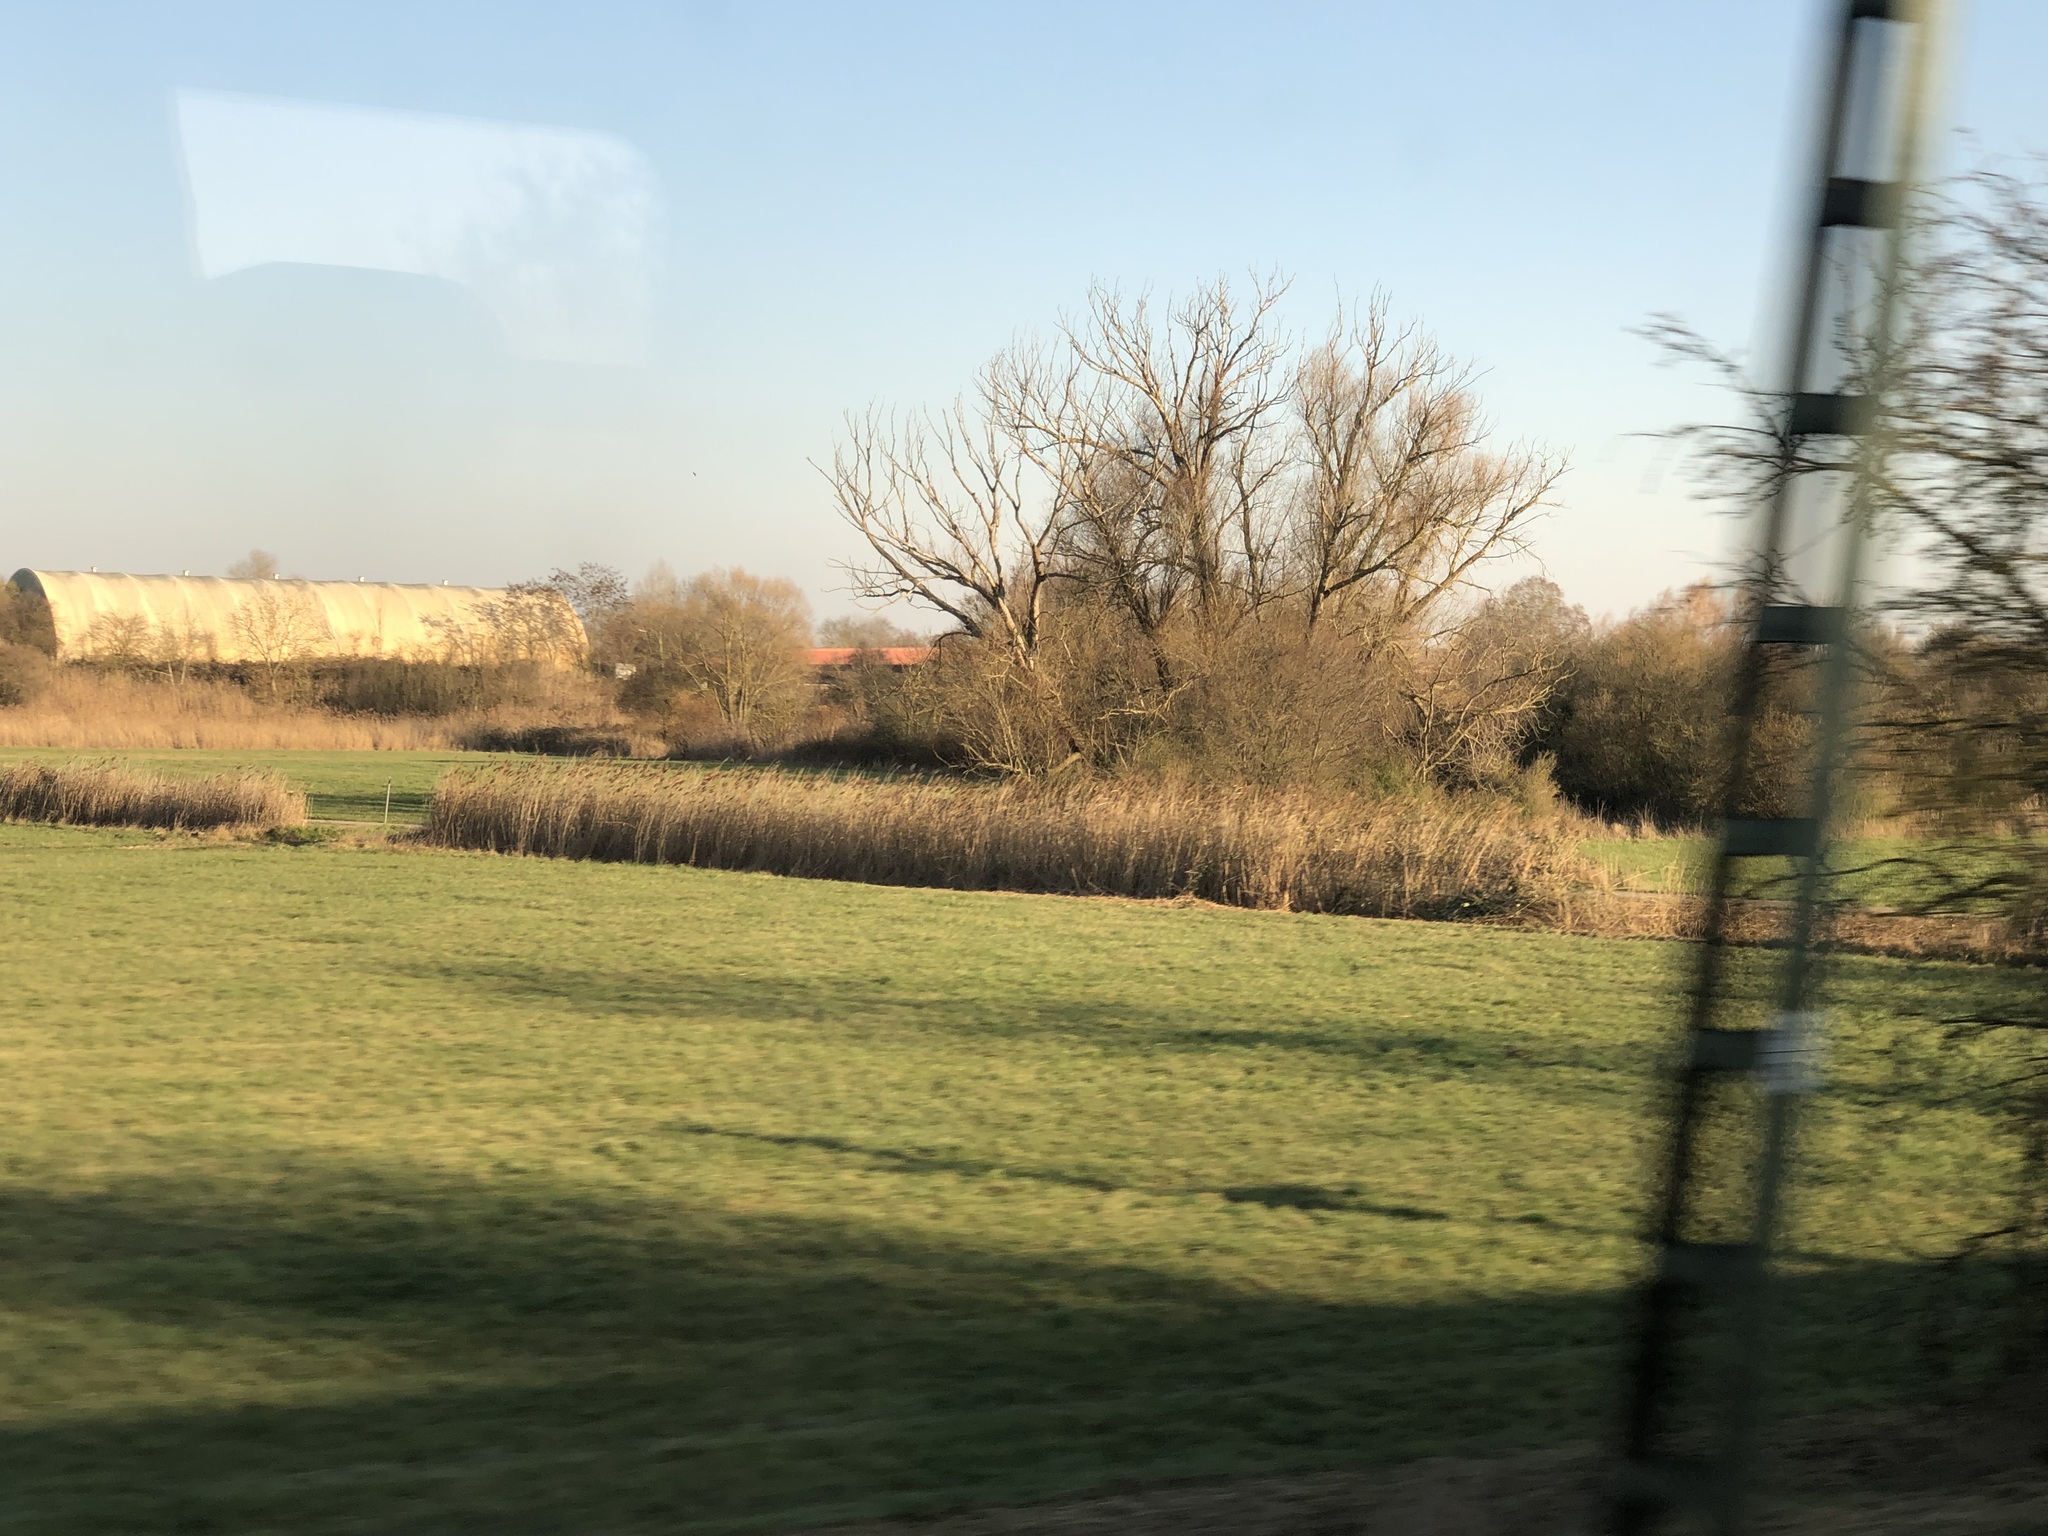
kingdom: Plantae
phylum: Tracheophyta
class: Liliopsida
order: Poales
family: Poaceae
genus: Phragmites
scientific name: Phragmites australis
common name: Common reed
